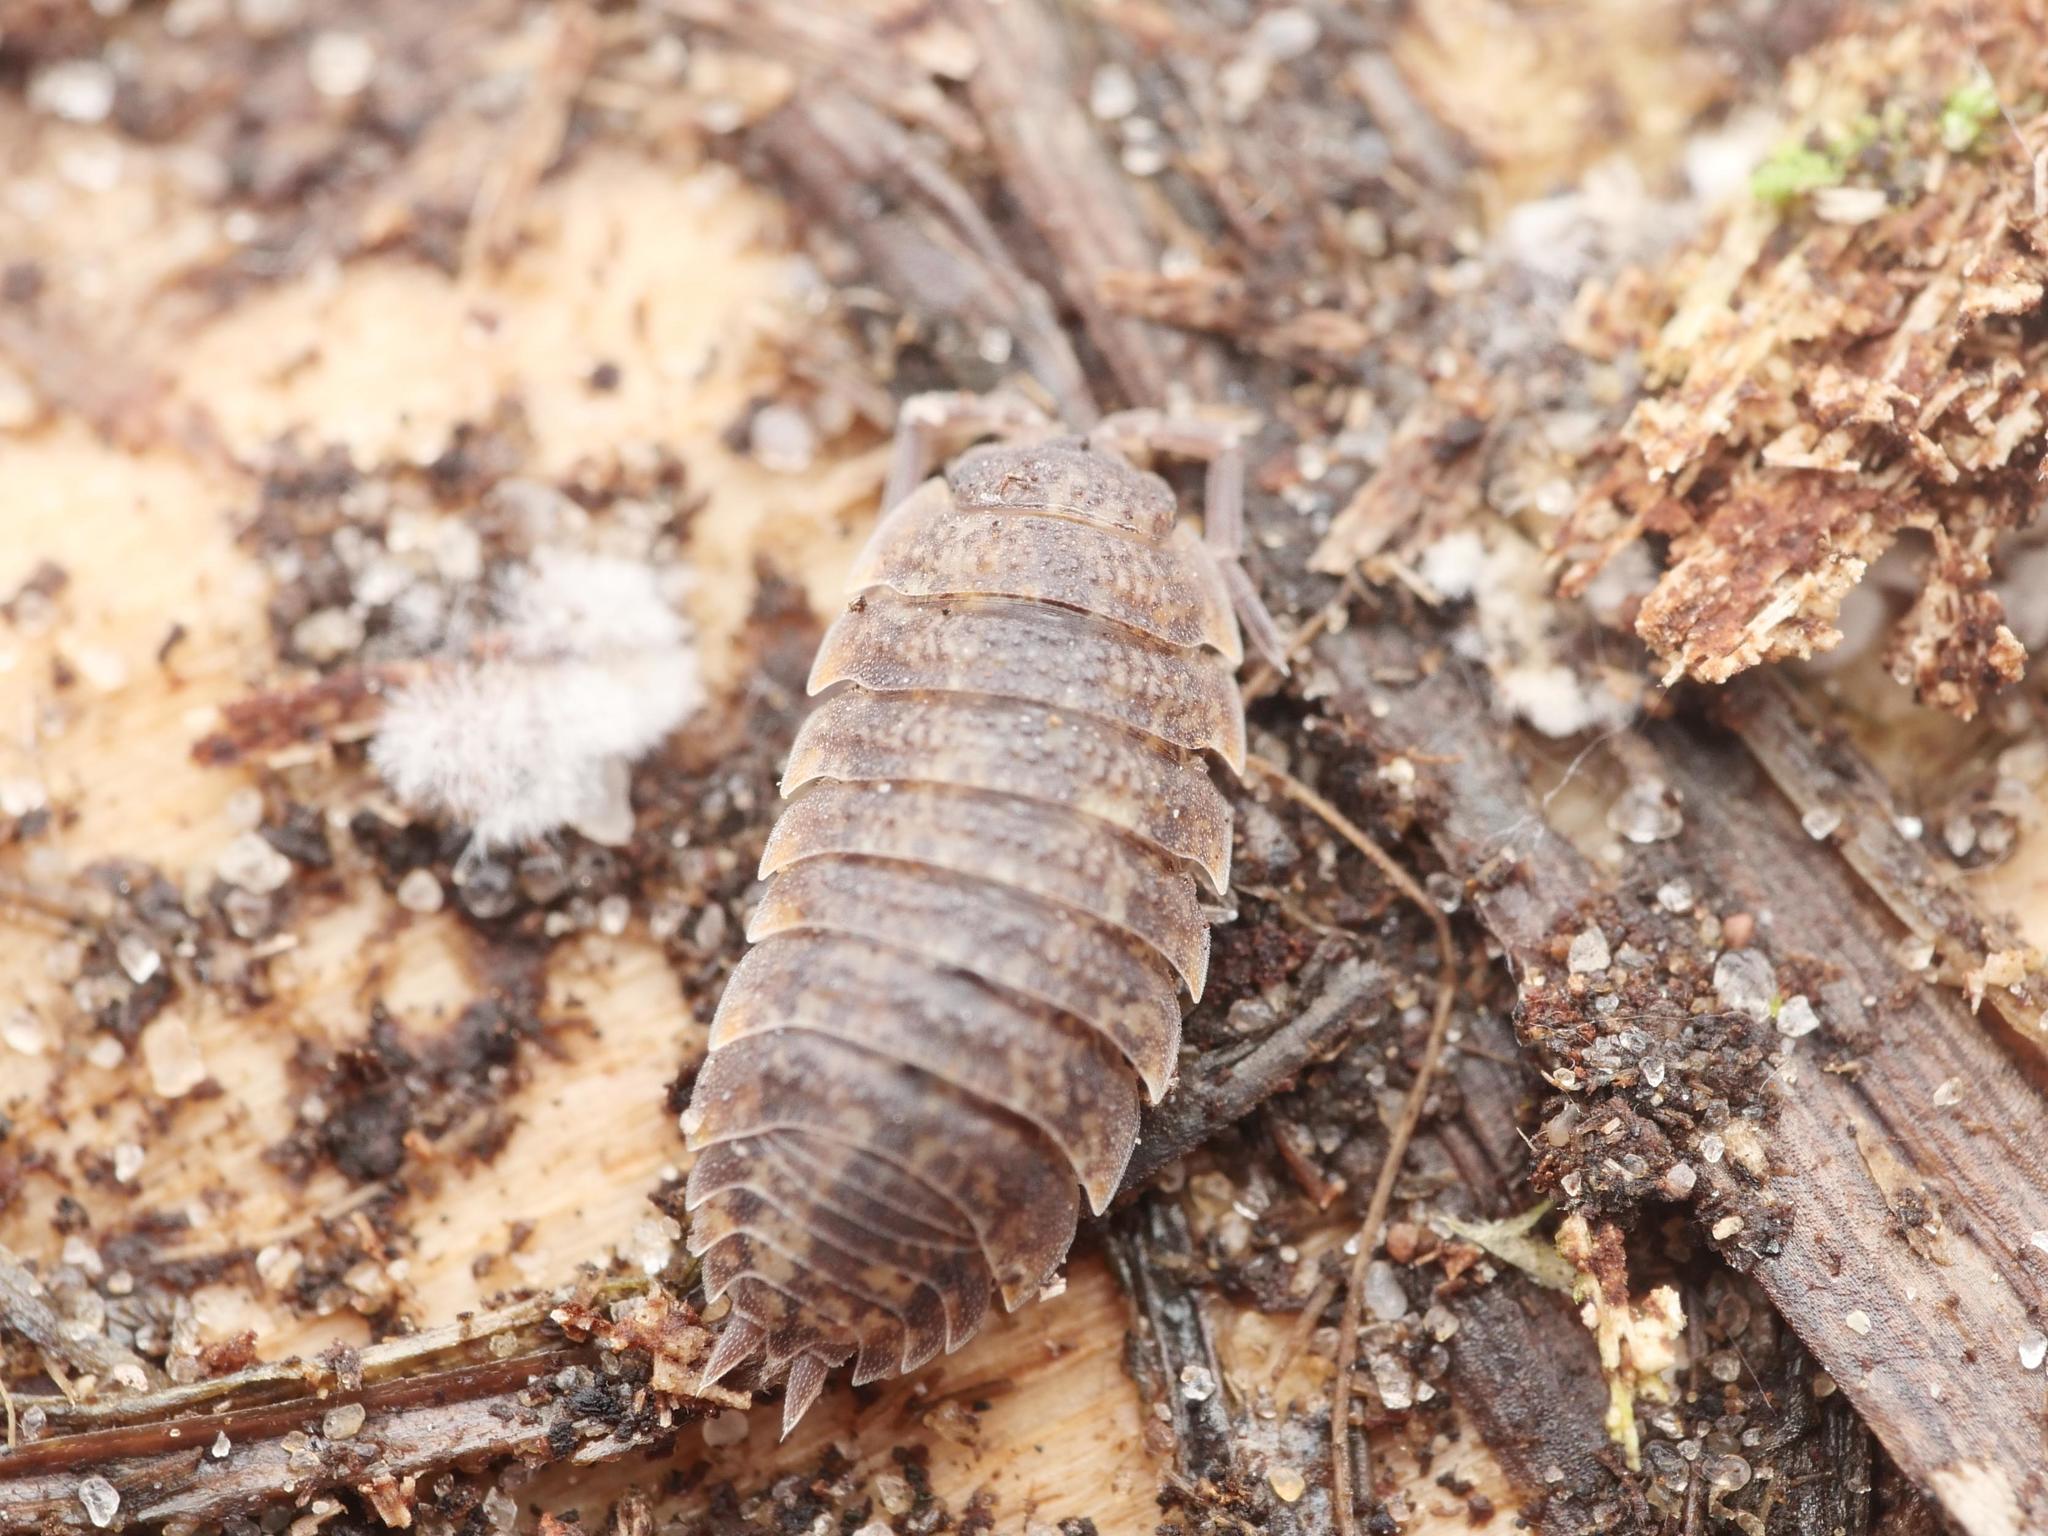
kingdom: Animalia
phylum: Arthropoda
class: Malacostraca
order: Isopoda
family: Porcellionidae
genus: Porcellio
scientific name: Porcellio scaber
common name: Common rough woodlouse
